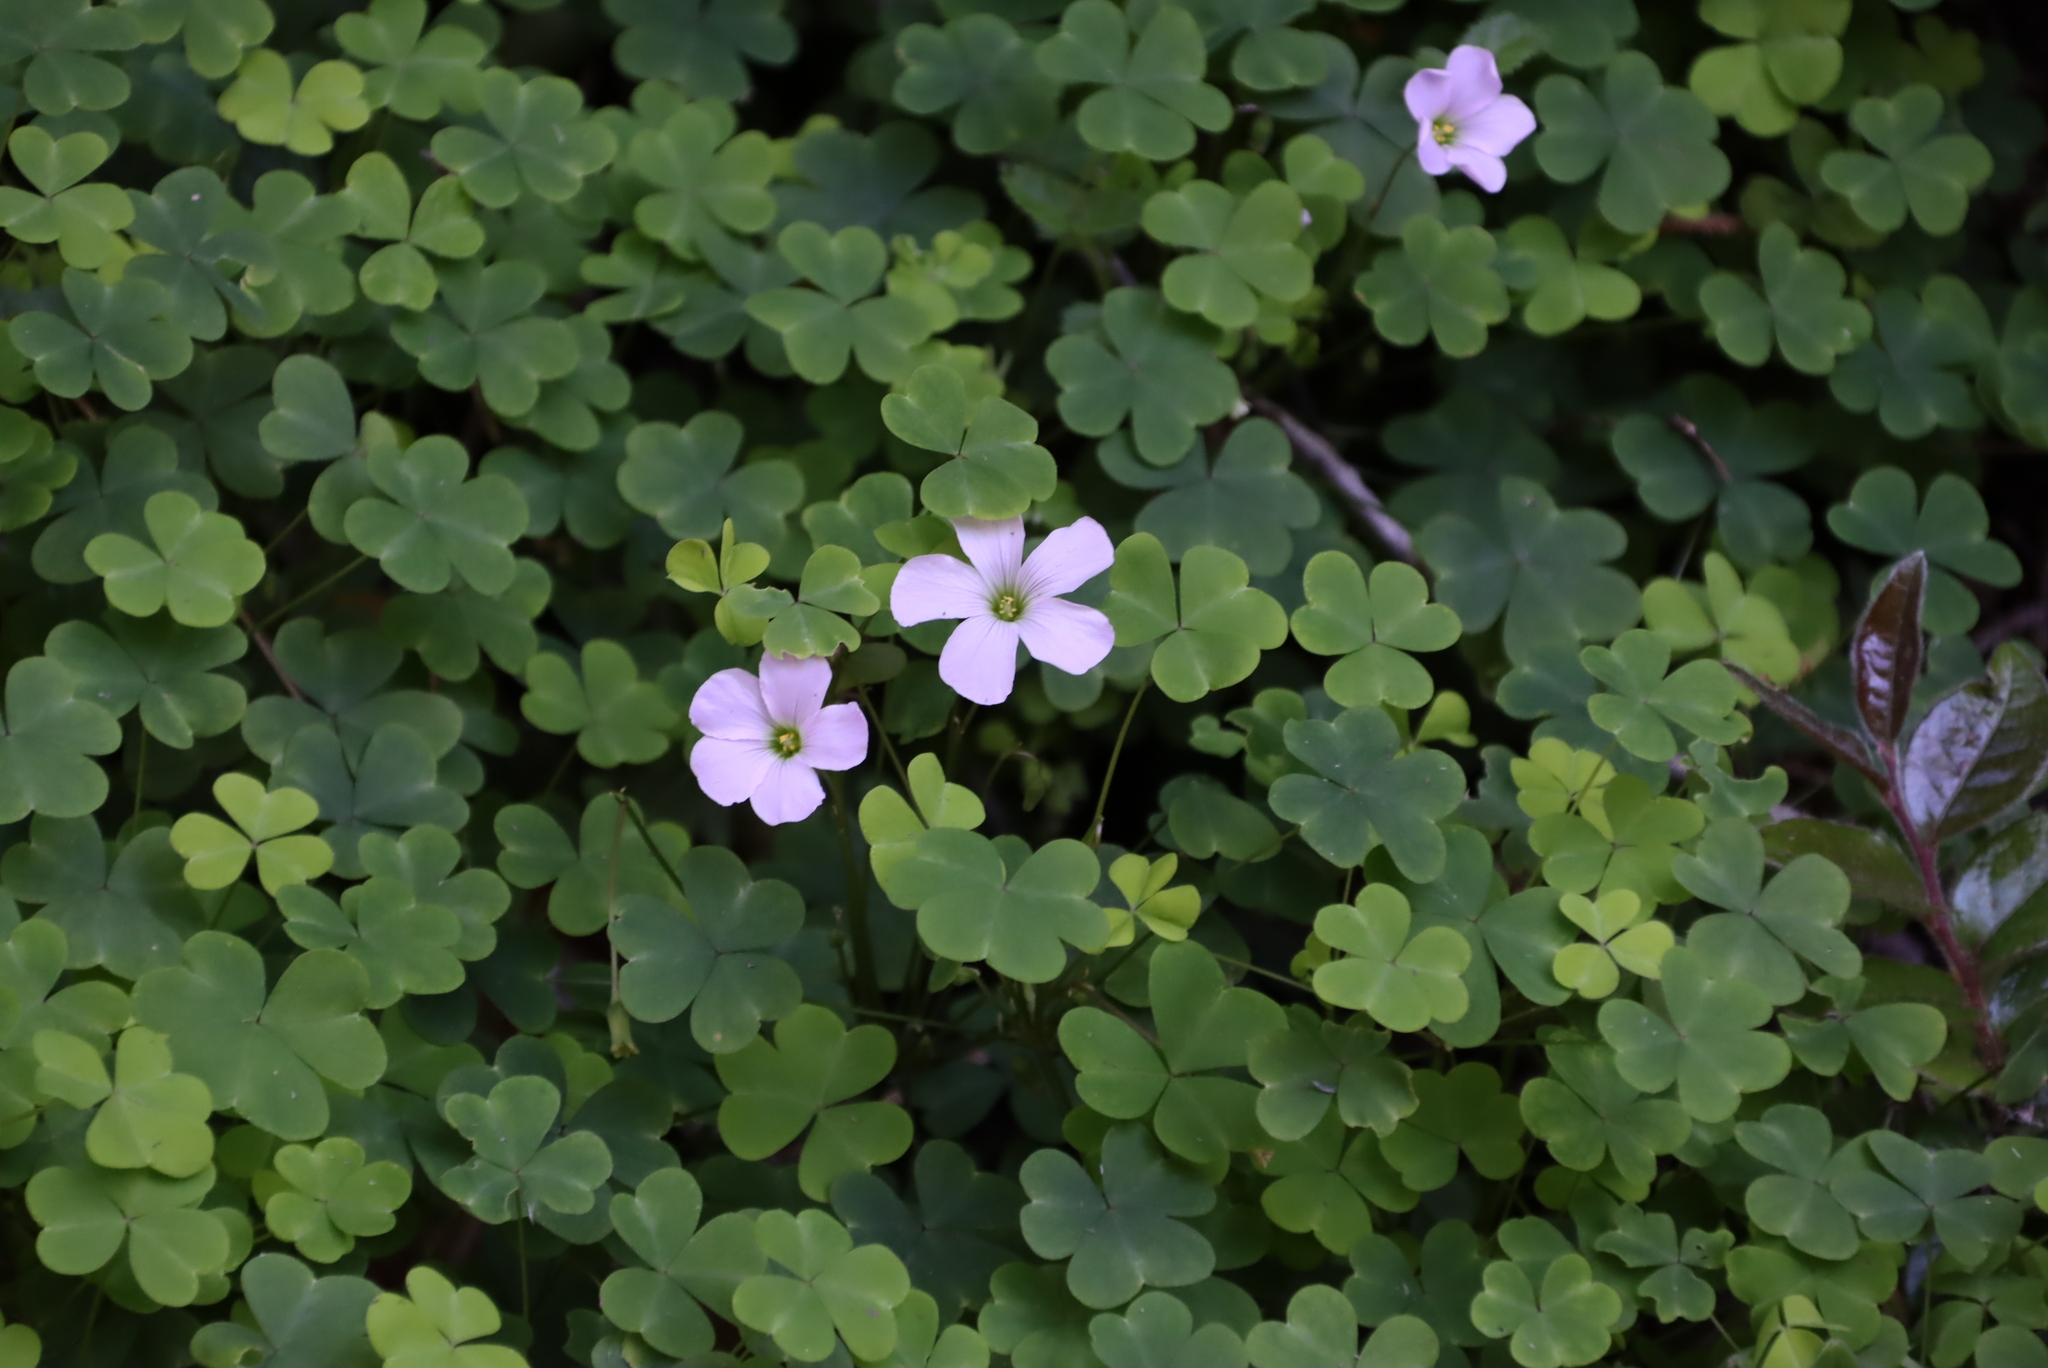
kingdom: Plantae
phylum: Tracheophyta
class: Magnoliopsida
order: Oxalidales
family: Oxalidaceae
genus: Oxalis
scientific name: Oxalis incarnata
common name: Pale pink-sorrel
